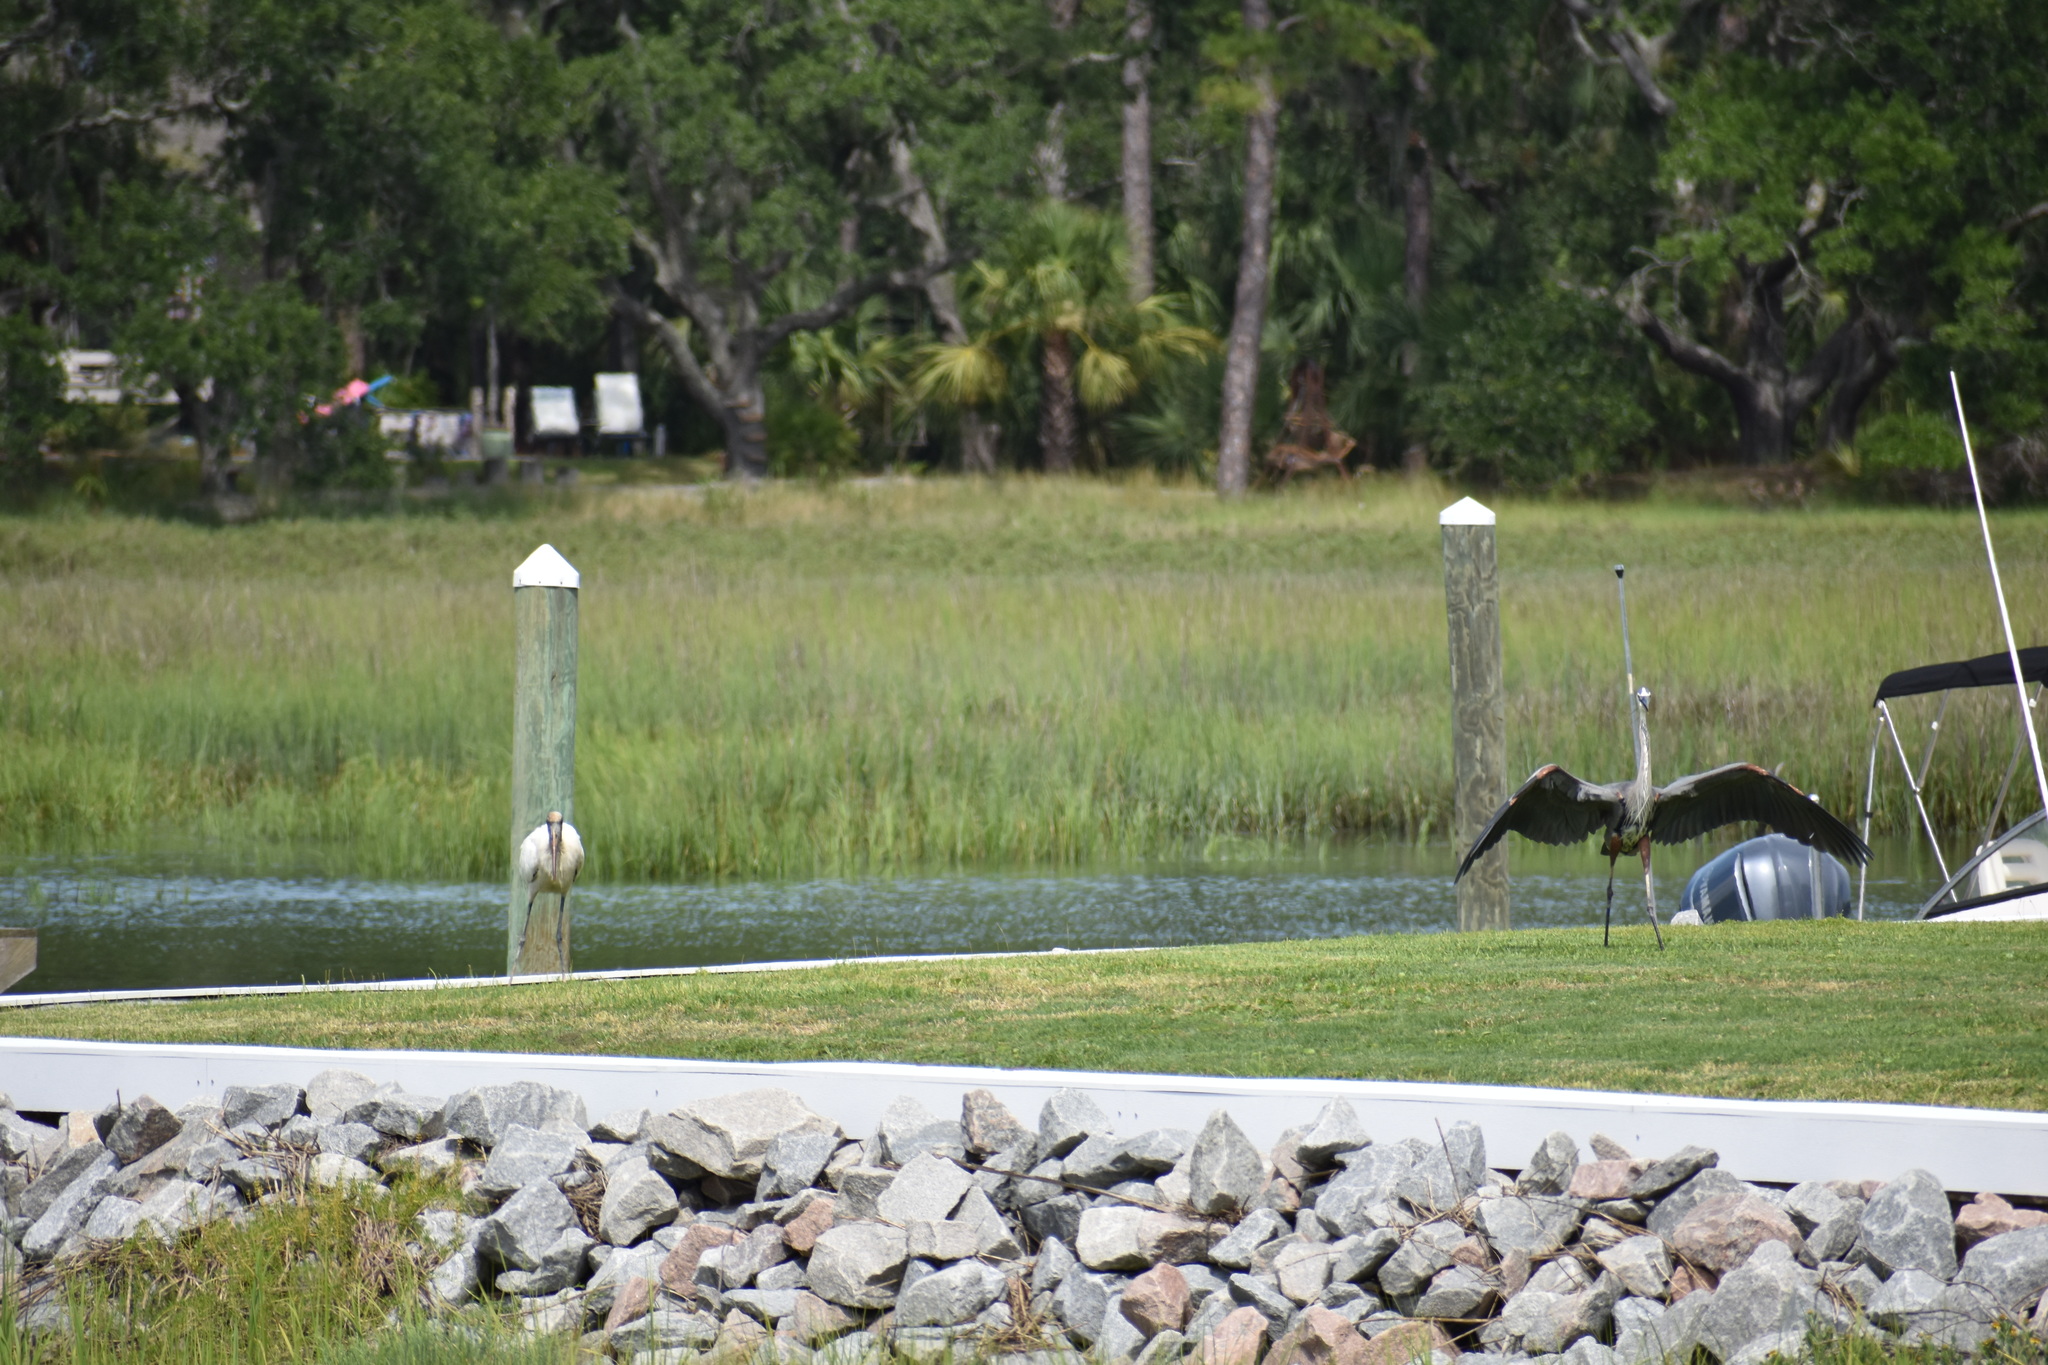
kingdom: Animalia
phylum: Chordata
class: Aves
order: Pelecaniformes
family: Ardeidae
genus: Ardea
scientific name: Ardea herodias
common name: Great blue heron
